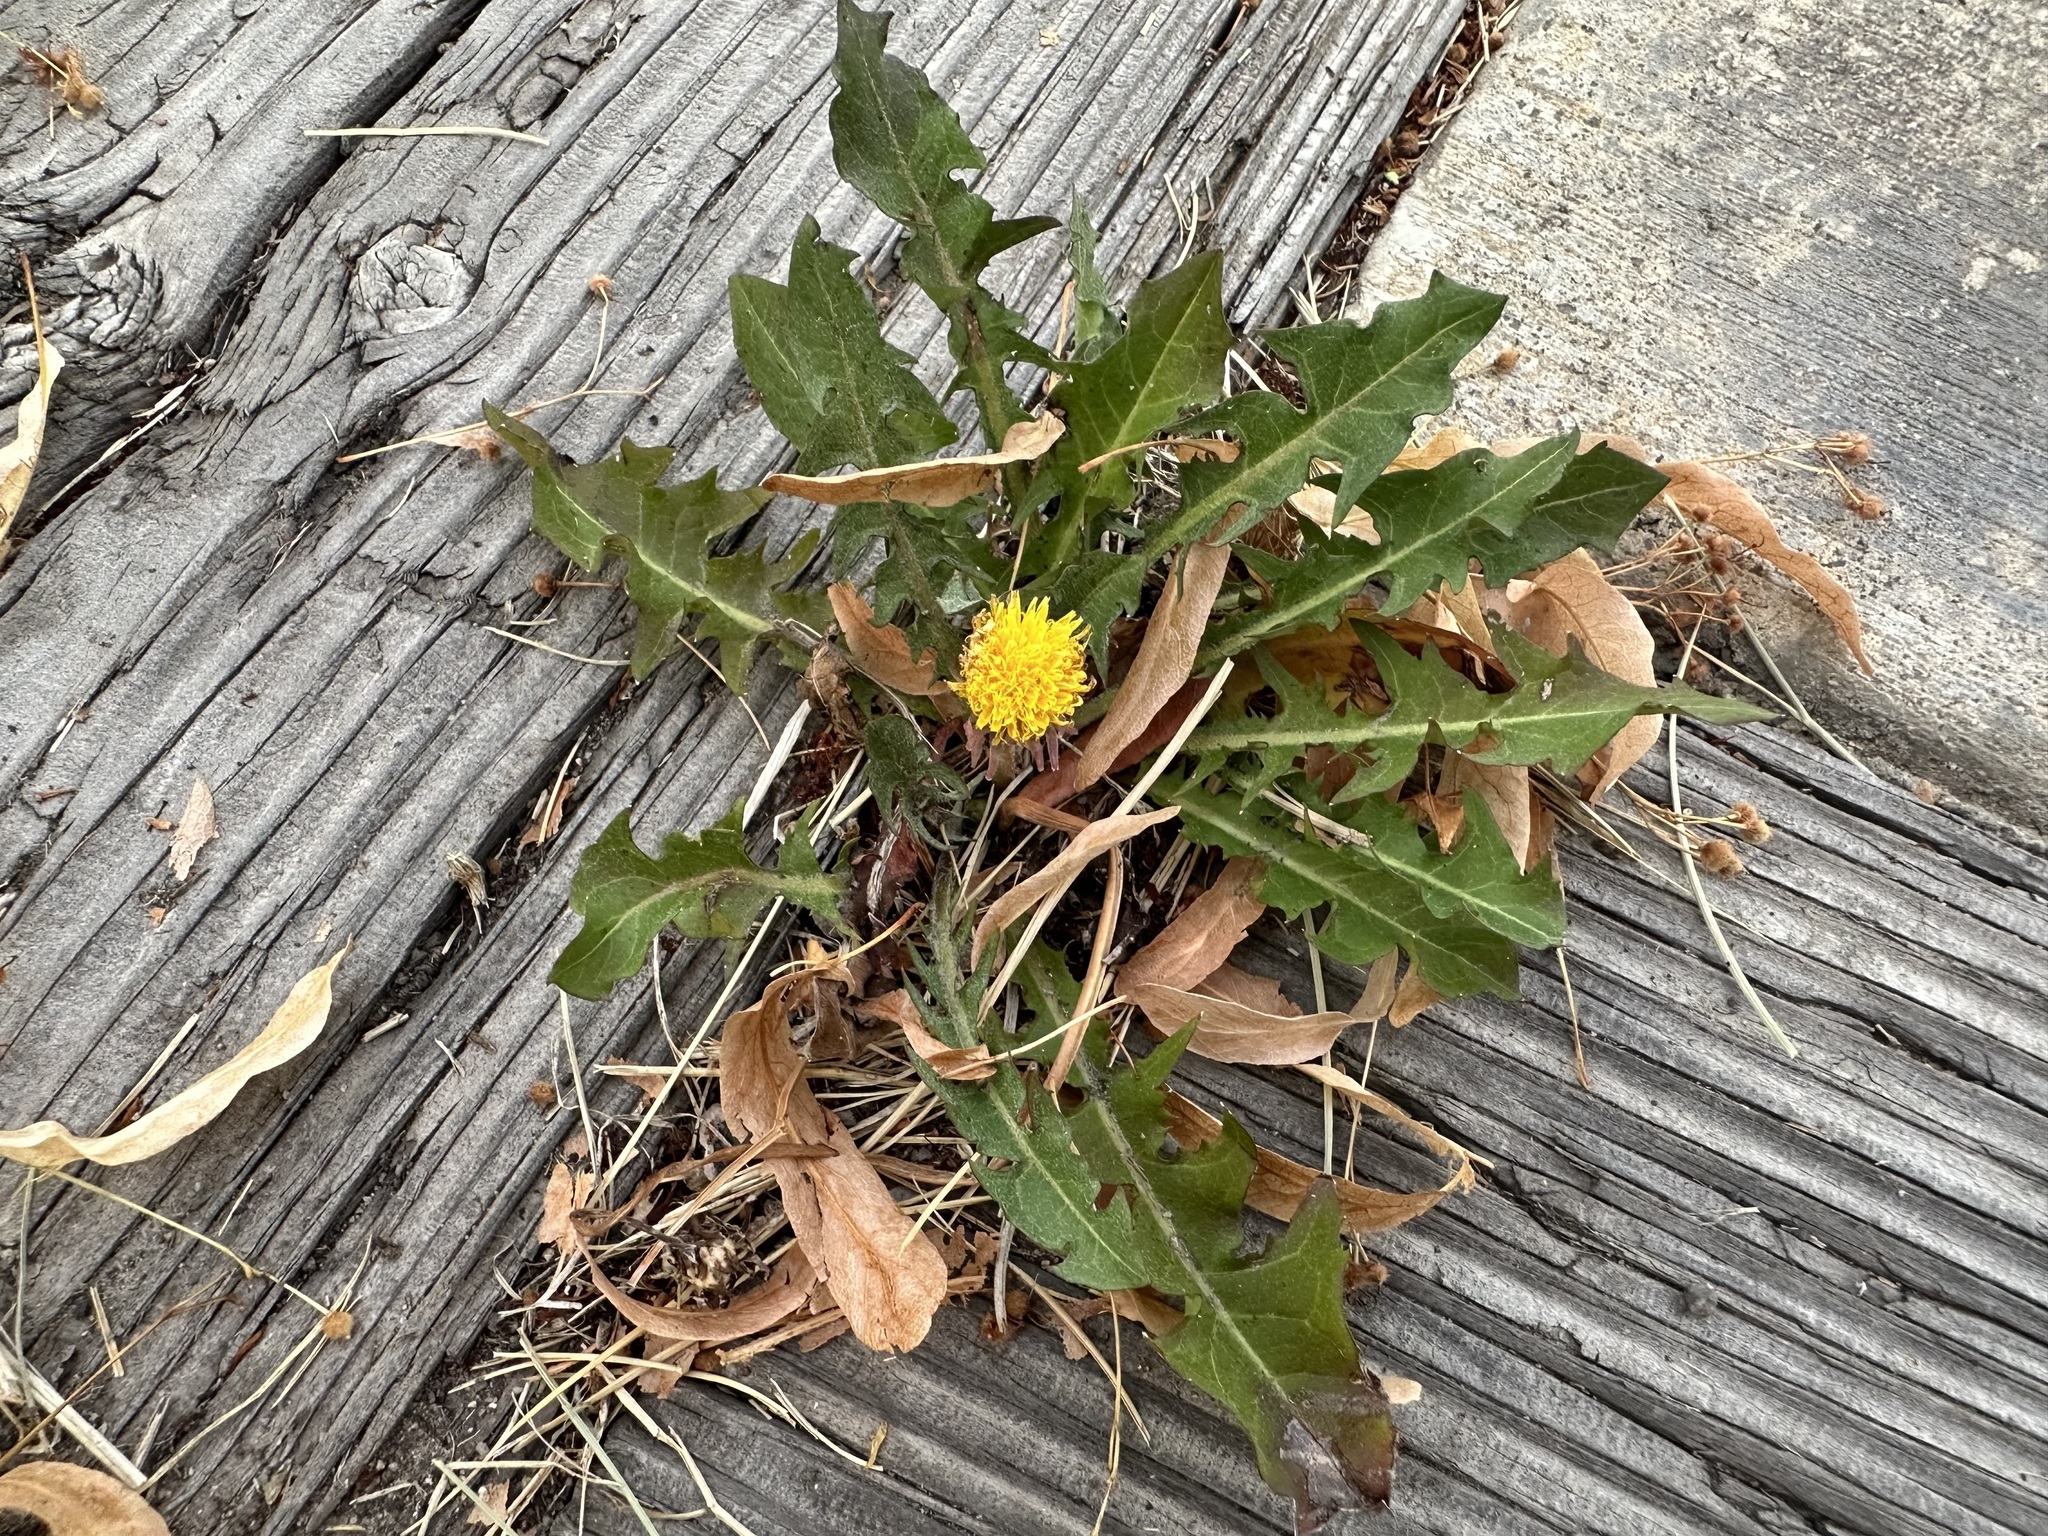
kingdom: Plantae
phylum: Tracheophyta
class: Magnoliopsida
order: Asterales
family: Asteraceae
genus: Taraxacum
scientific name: Taraxacum officinale
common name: Common dandelion
